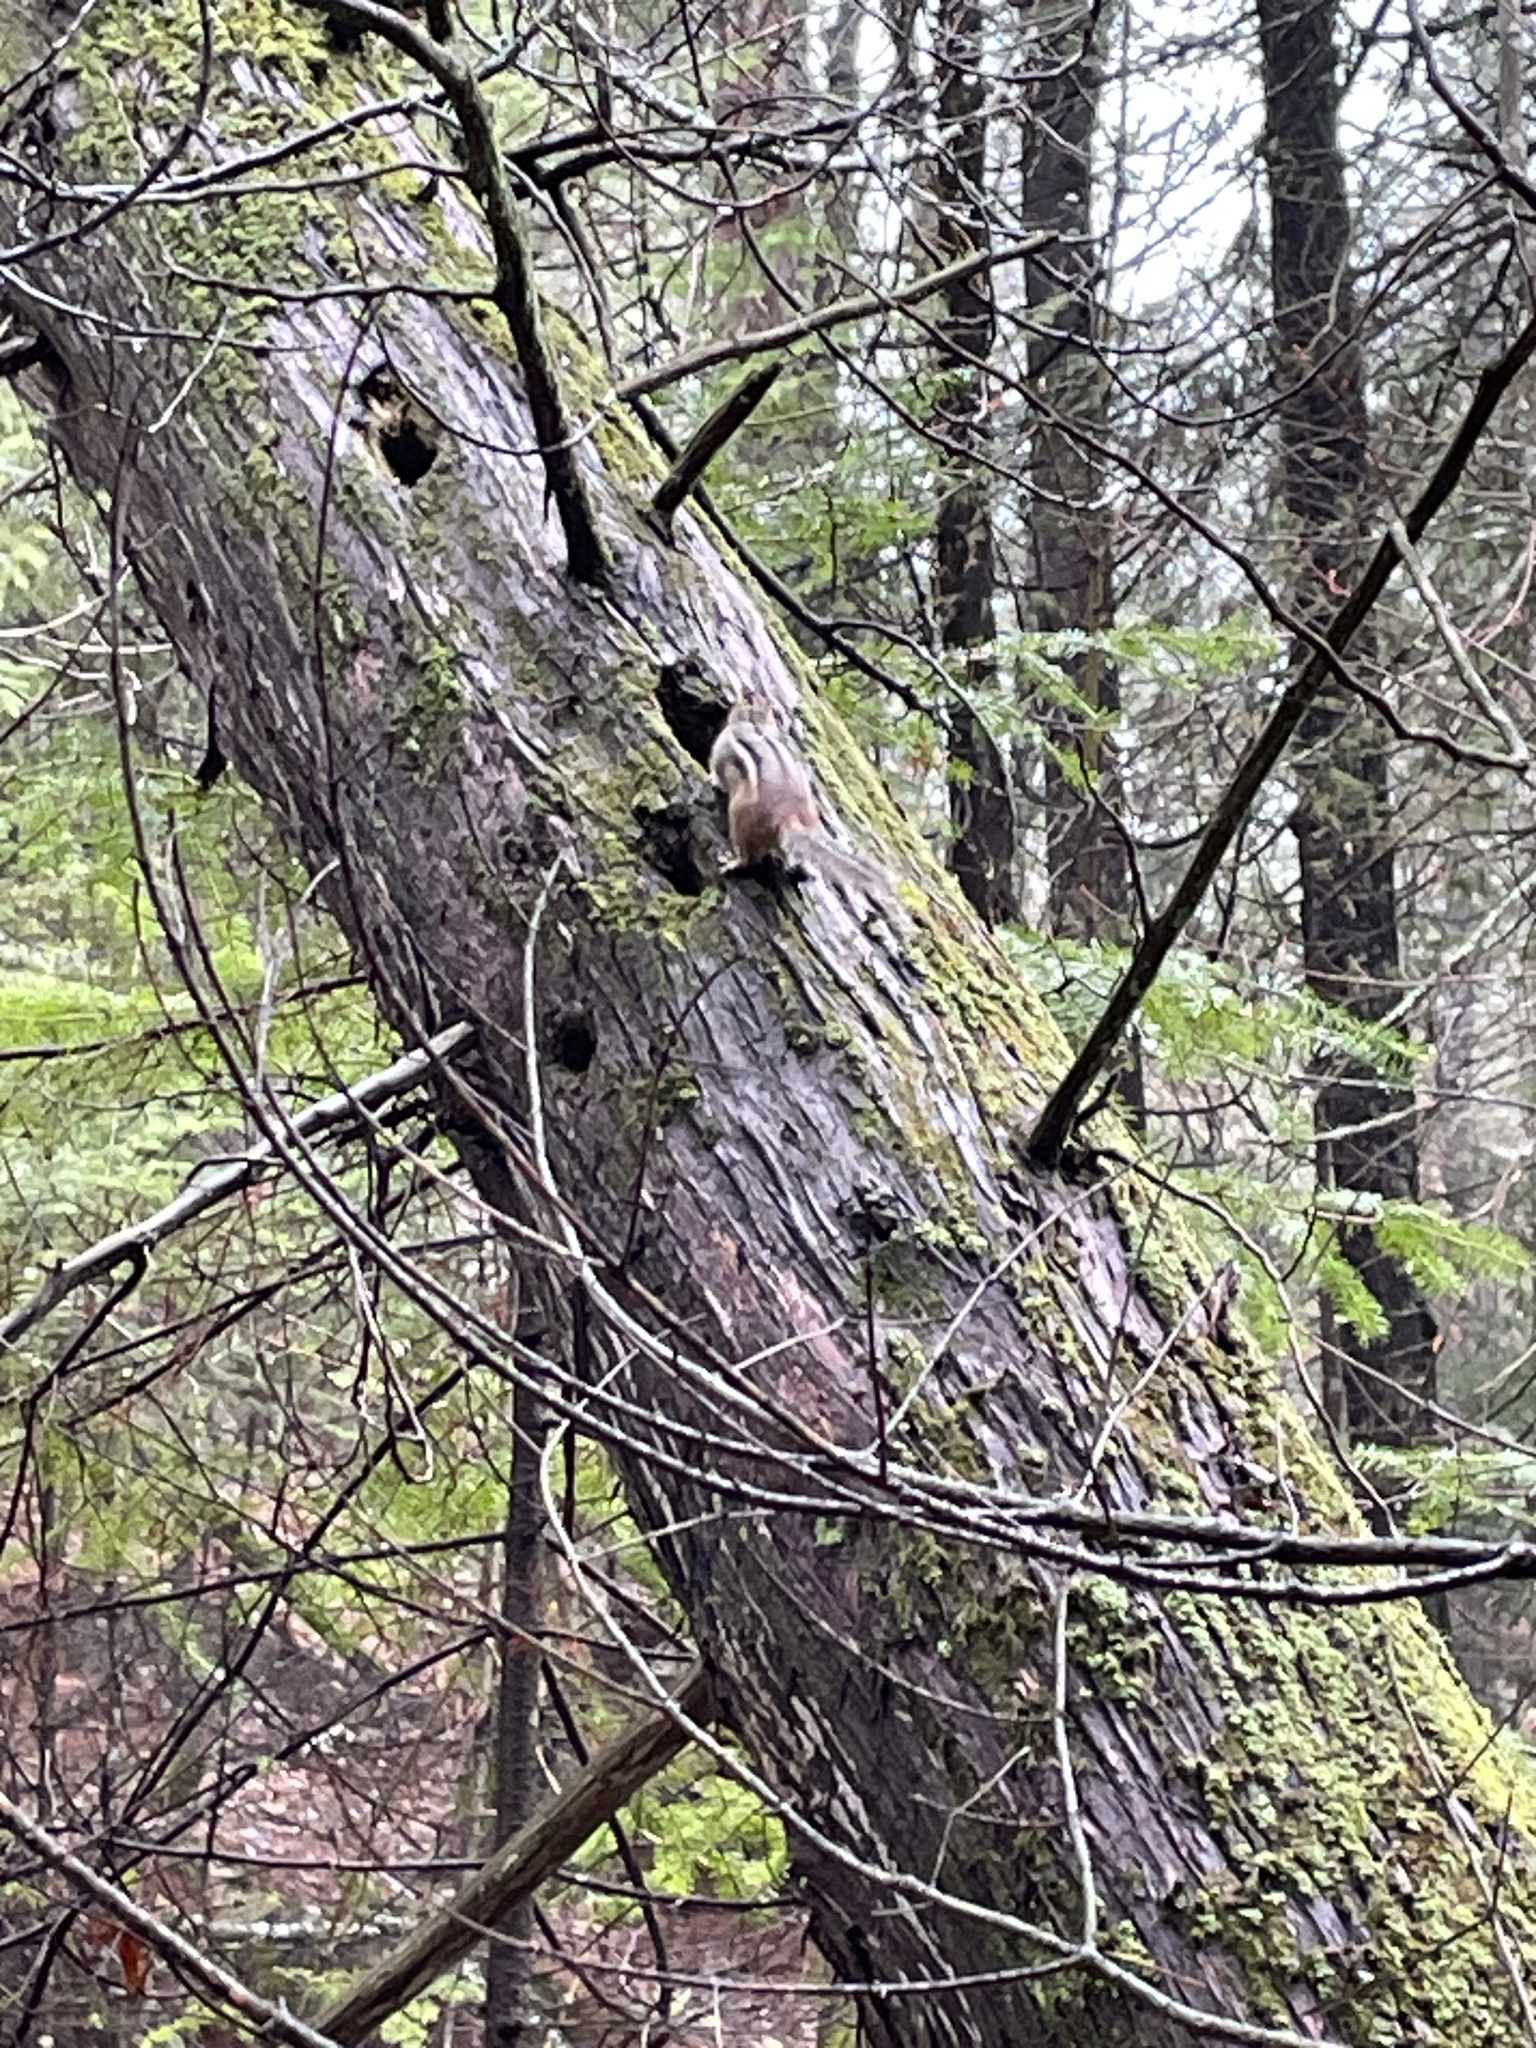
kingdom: Animalia
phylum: Chordata
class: Mammalia
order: Rodentia
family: Sciuridae
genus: Tamias
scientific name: Tamias striatus
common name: Eastern chipmunk
